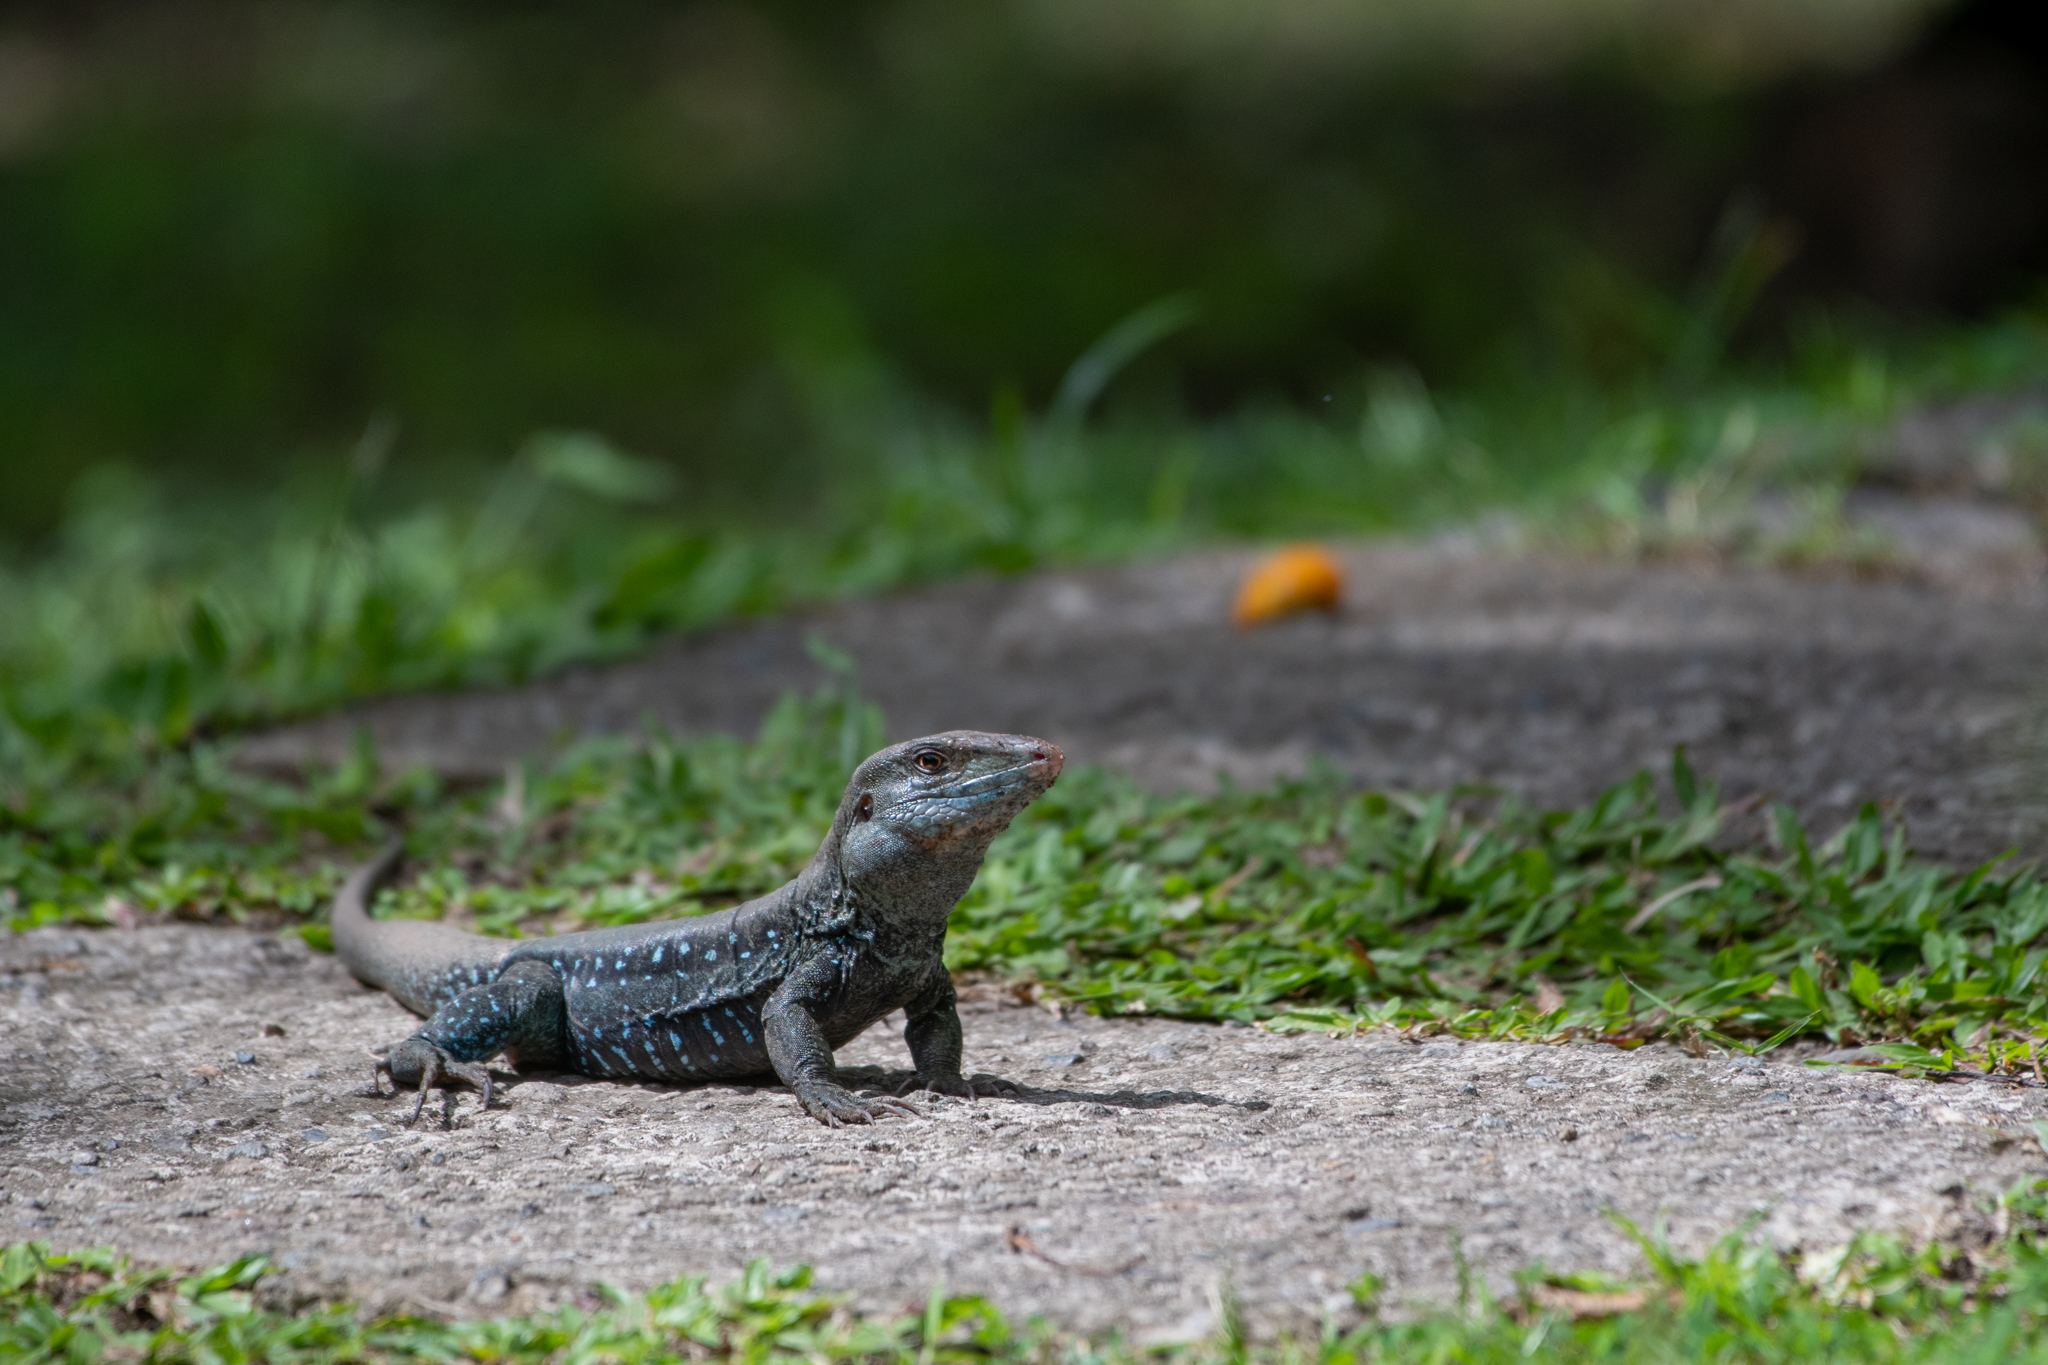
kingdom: Animalia
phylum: Chordata
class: Squamata
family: Teiidae
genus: Pholidoscelis
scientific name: Pholidoscelis fuscatus
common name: Dominican ameiva
